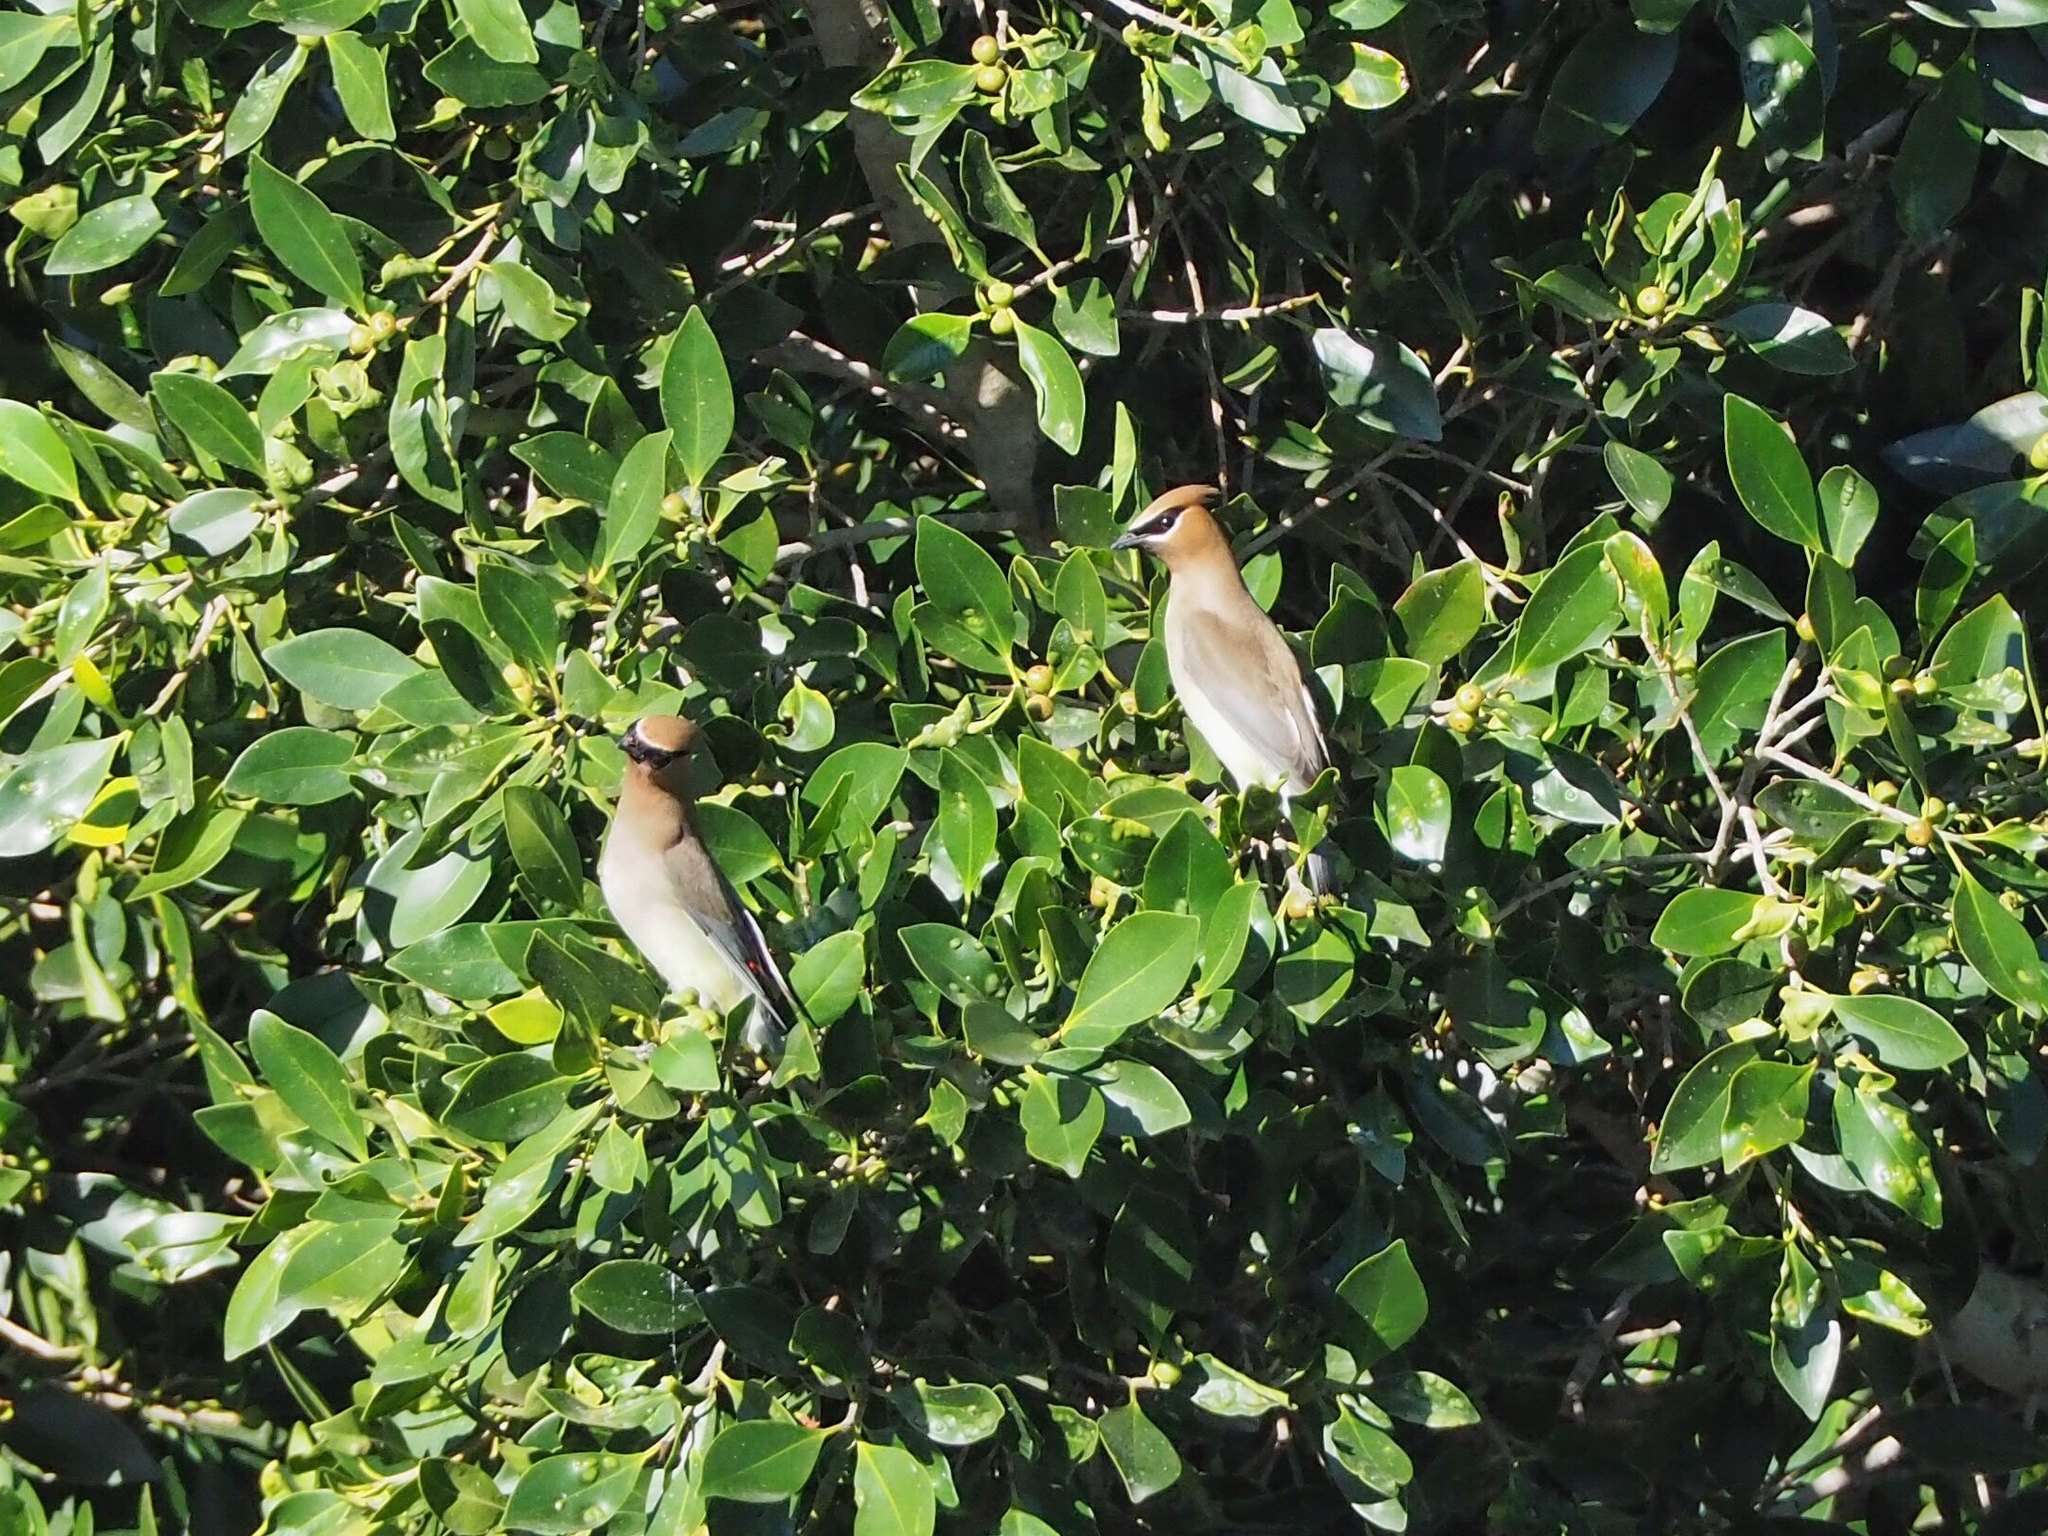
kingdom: Animalia
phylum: Chordata
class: Aves
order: Passeriformes
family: Bombycillidae
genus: Bombycilla
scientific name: Bombycilla cedrorum
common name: Cedar waxwing
